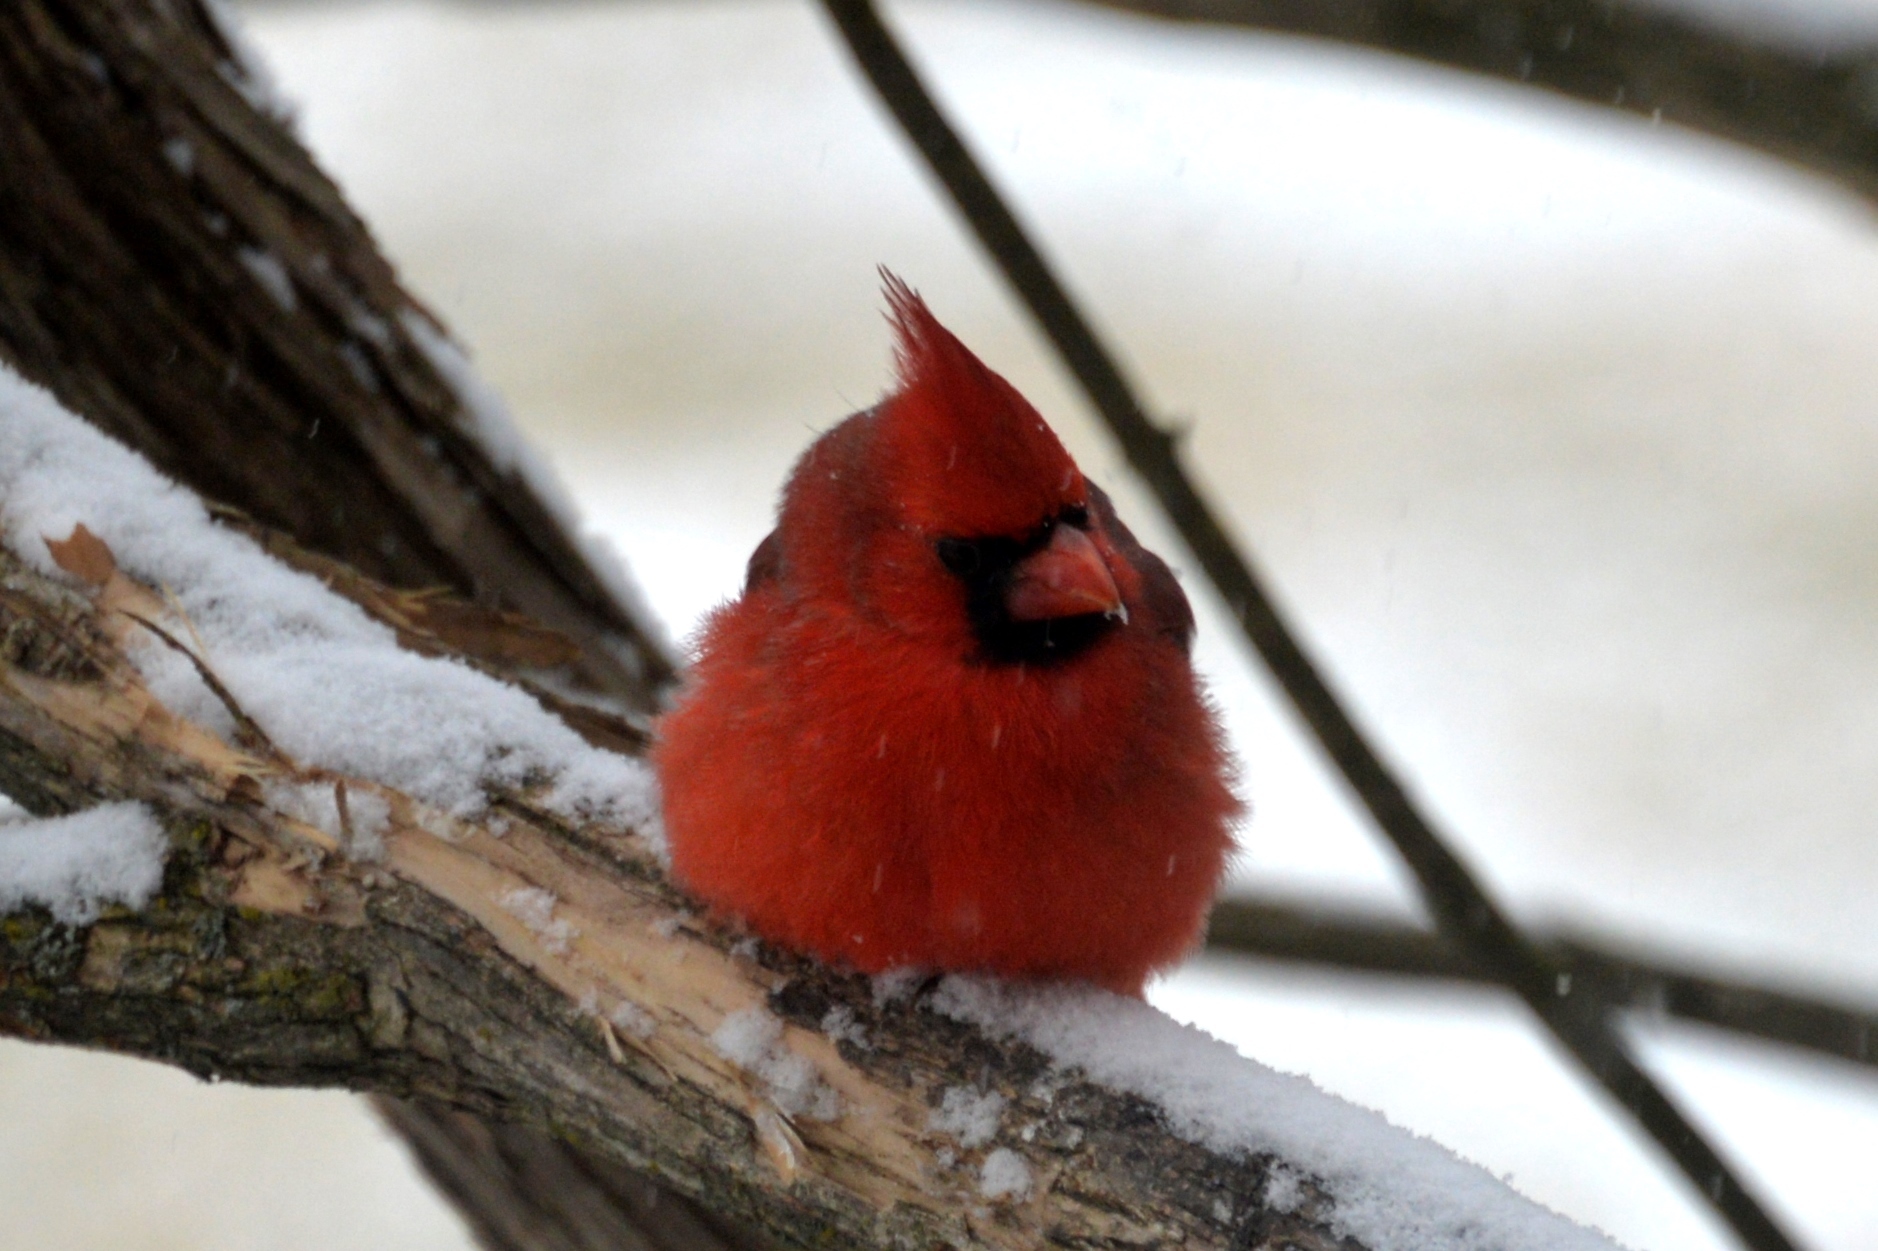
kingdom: Animalia
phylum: Chordata
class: Aves
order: Passeriformes
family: Cardinalidae
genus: Cardinalis
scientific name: Cardinalis cardinalis
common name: Northern cardinal
